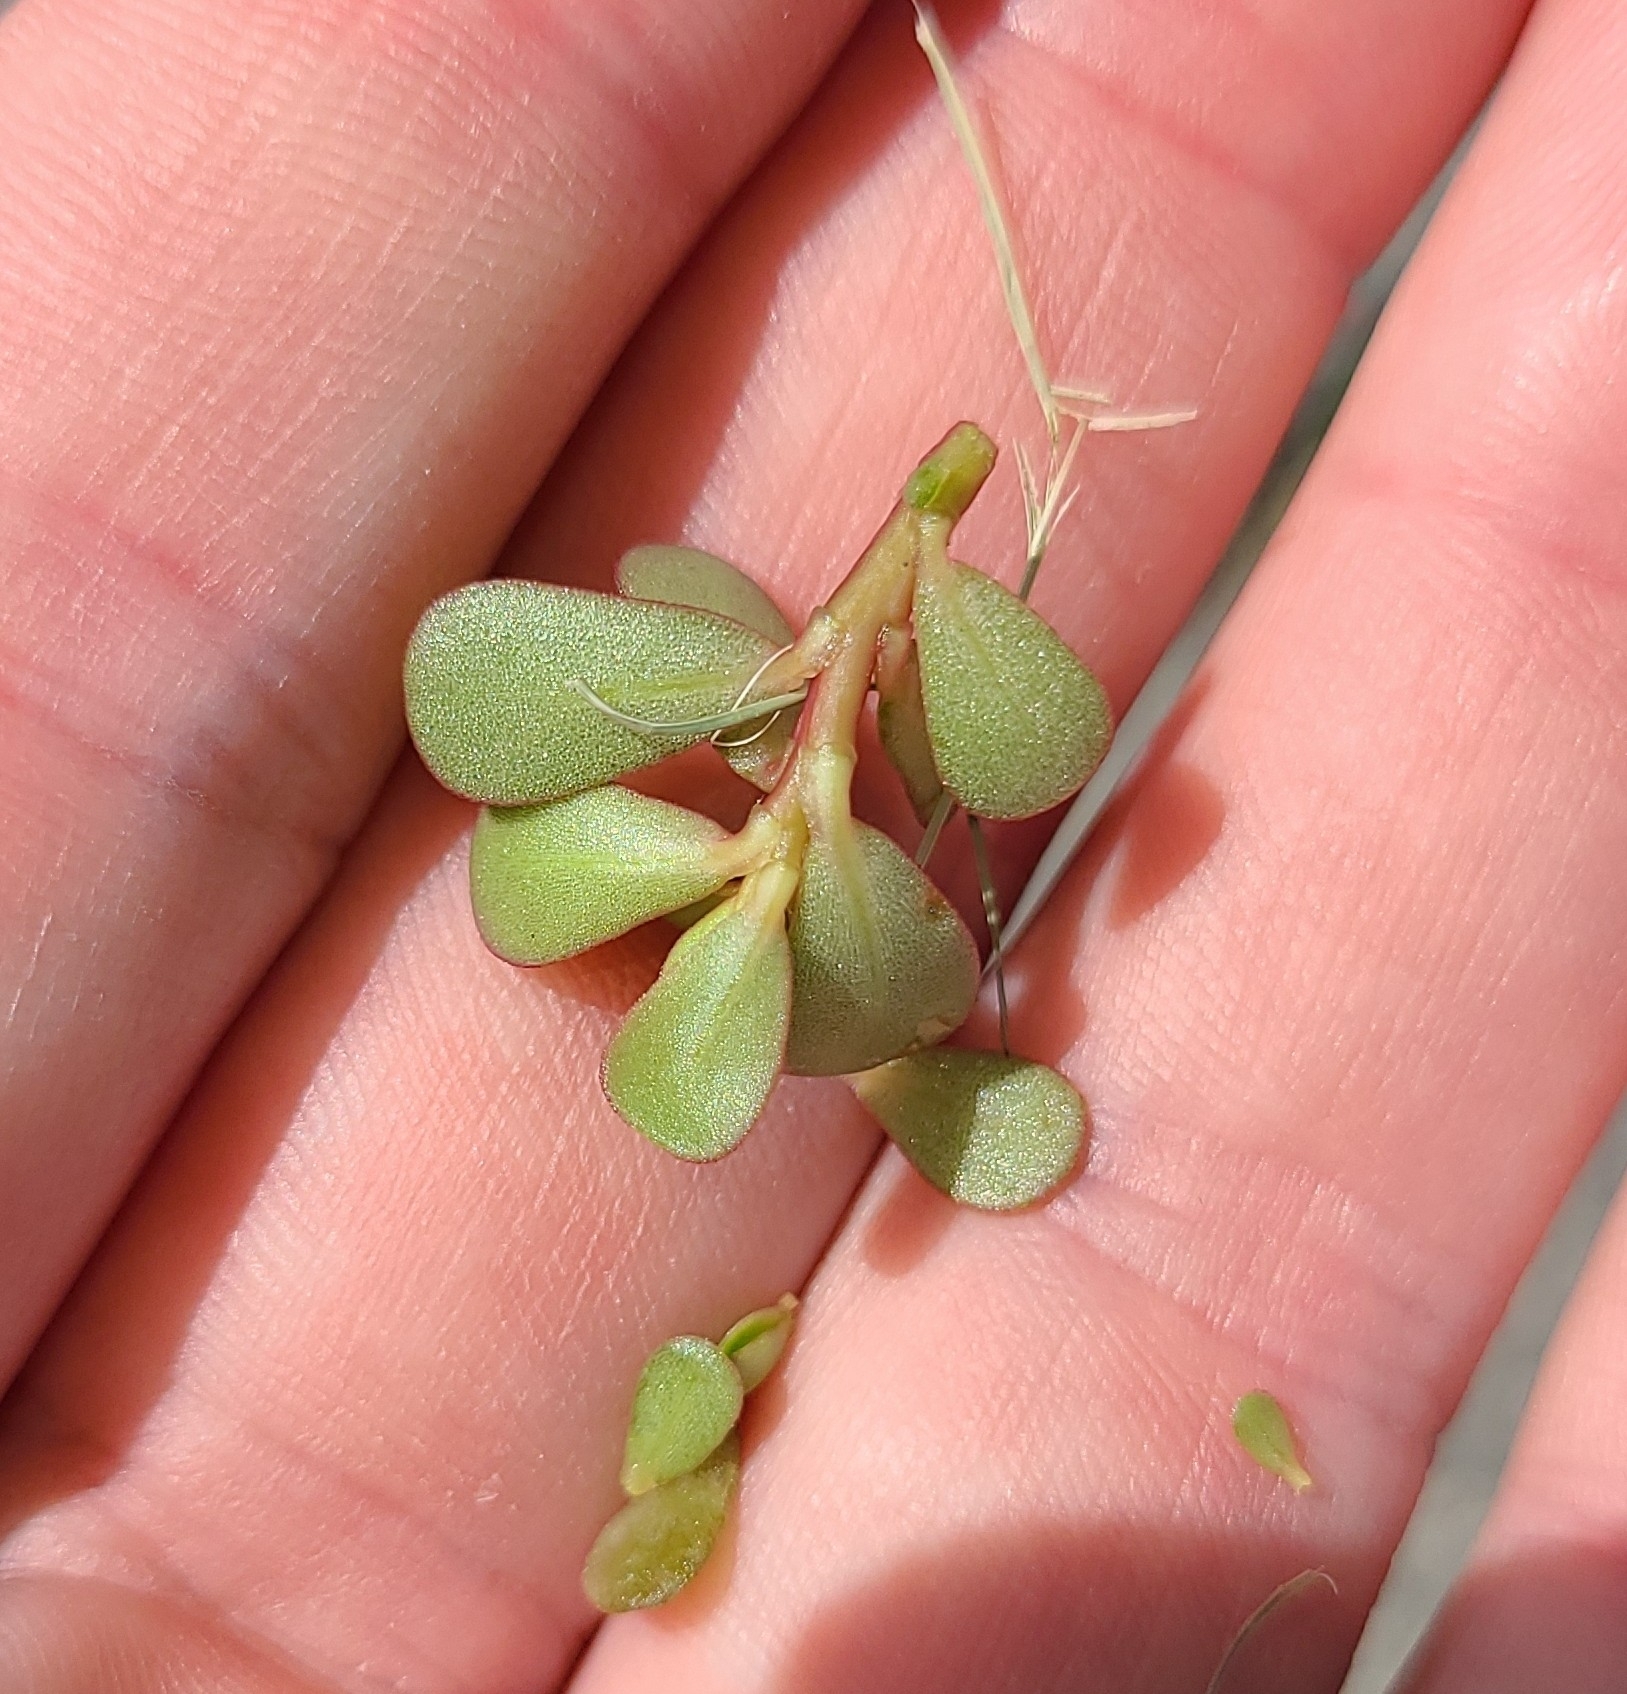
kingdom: Plantae
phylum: Tracheophyta
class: Magnoliopsida
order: Caryophyllales
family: Portulacaceae
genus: Portulaca
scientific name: Portulaca oleracea
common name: Common purslane
